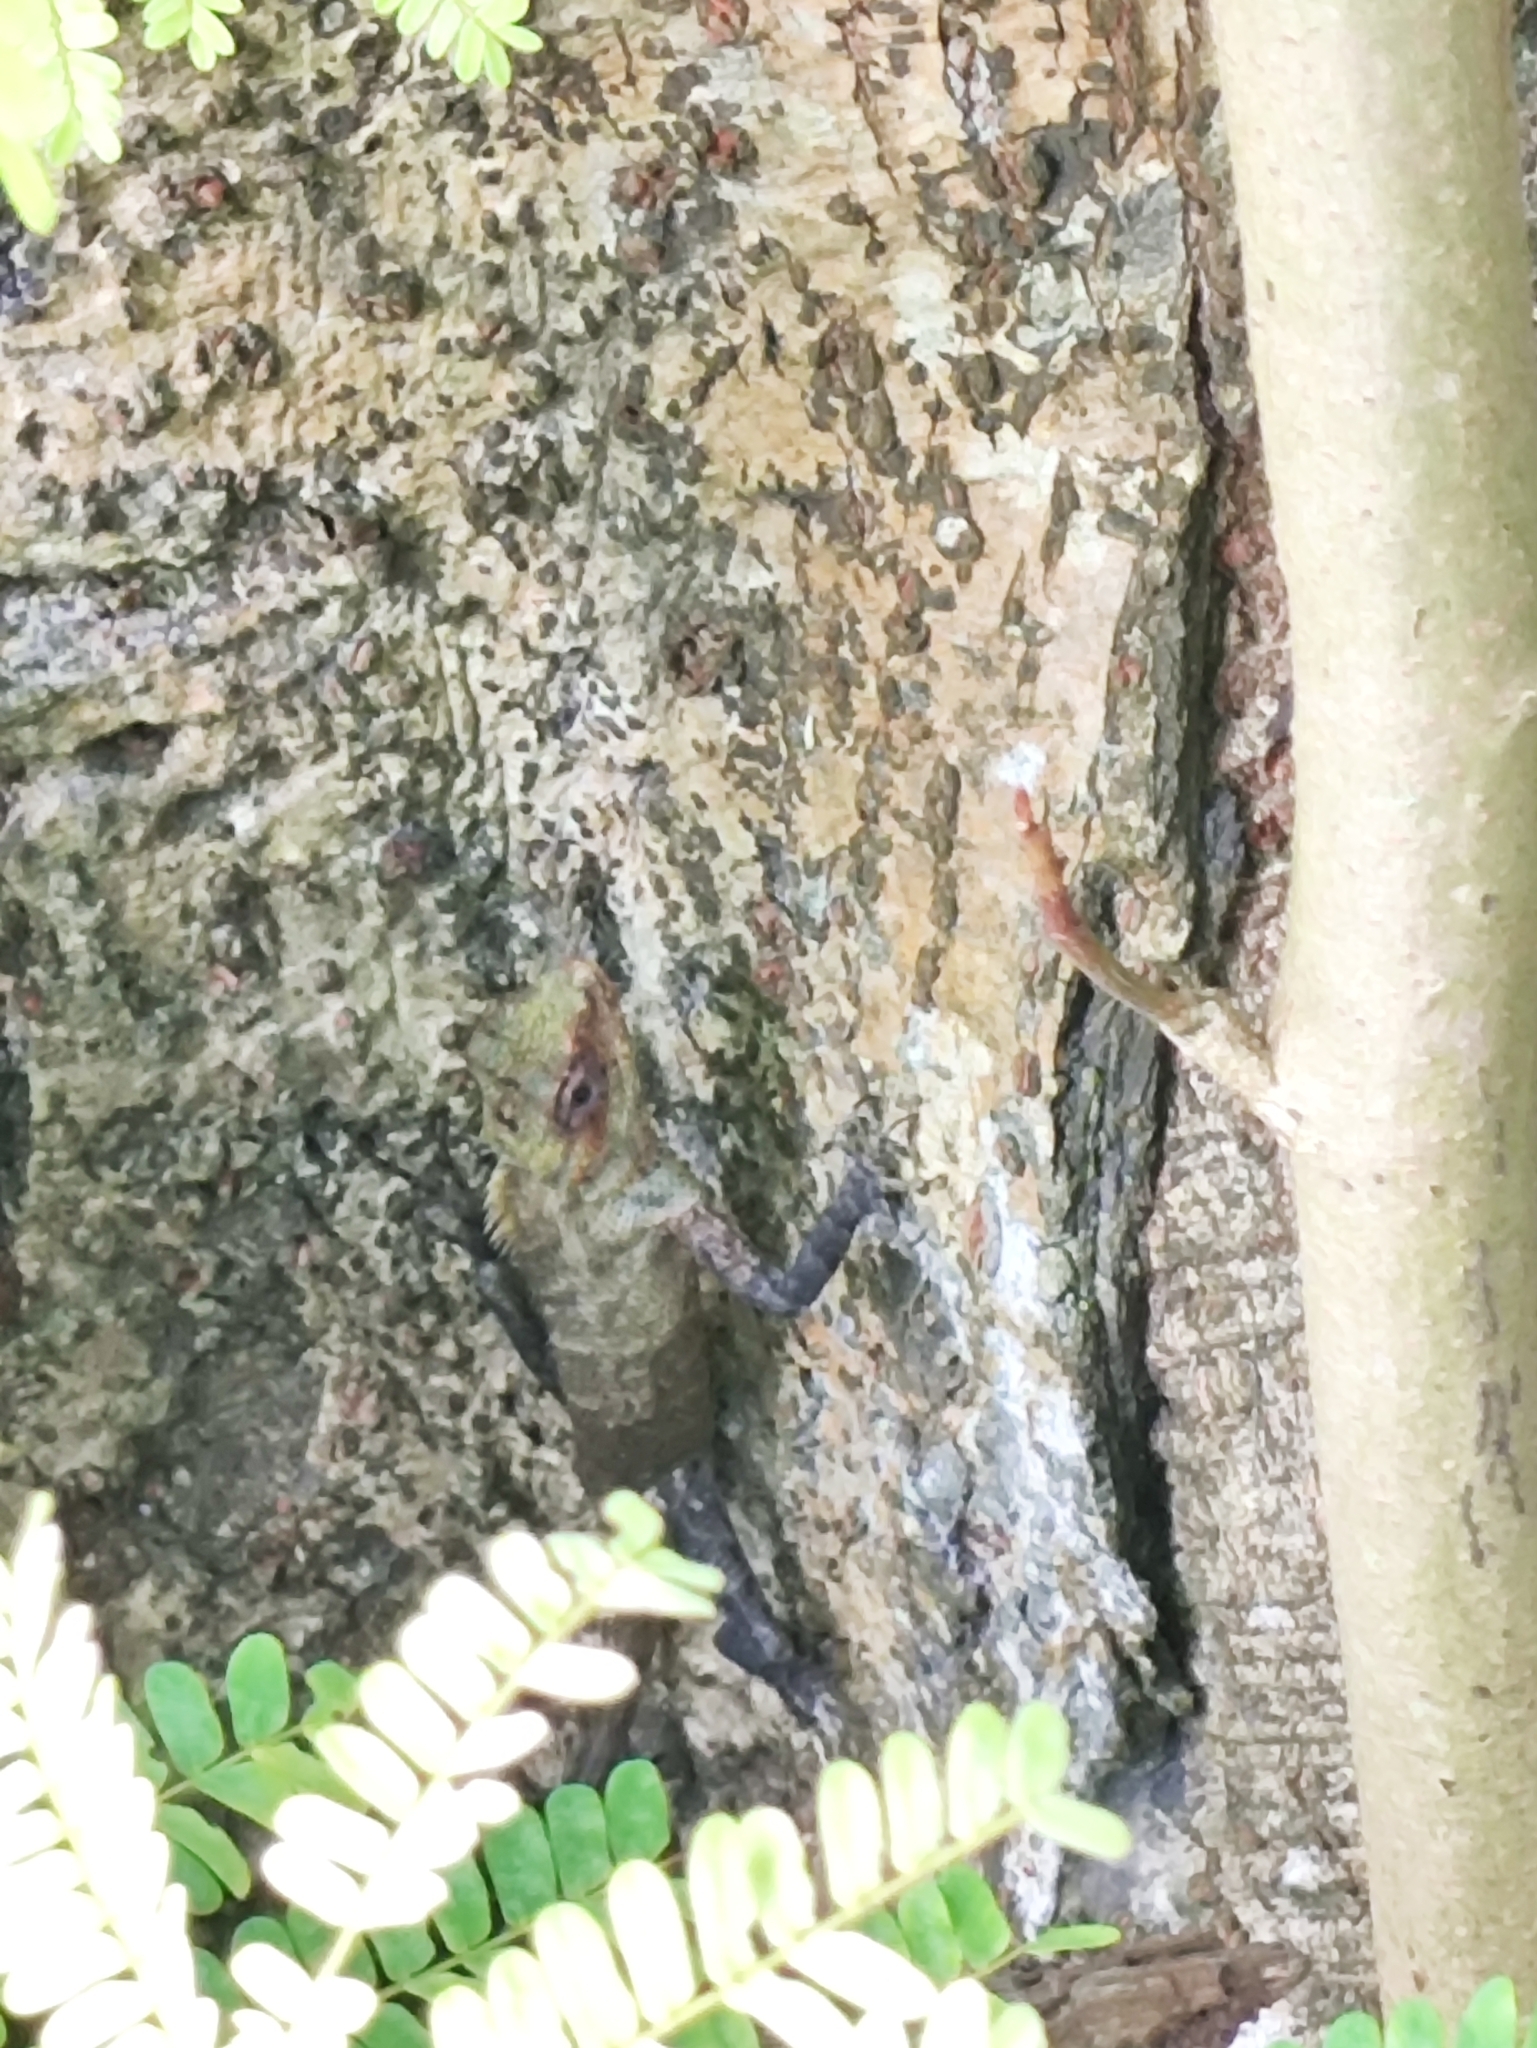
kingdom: Animalia
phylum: Chordata
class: Squamata
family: Agamidae
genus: Calotes
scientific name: Calotes versicolor
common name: Oriental garden lizard
